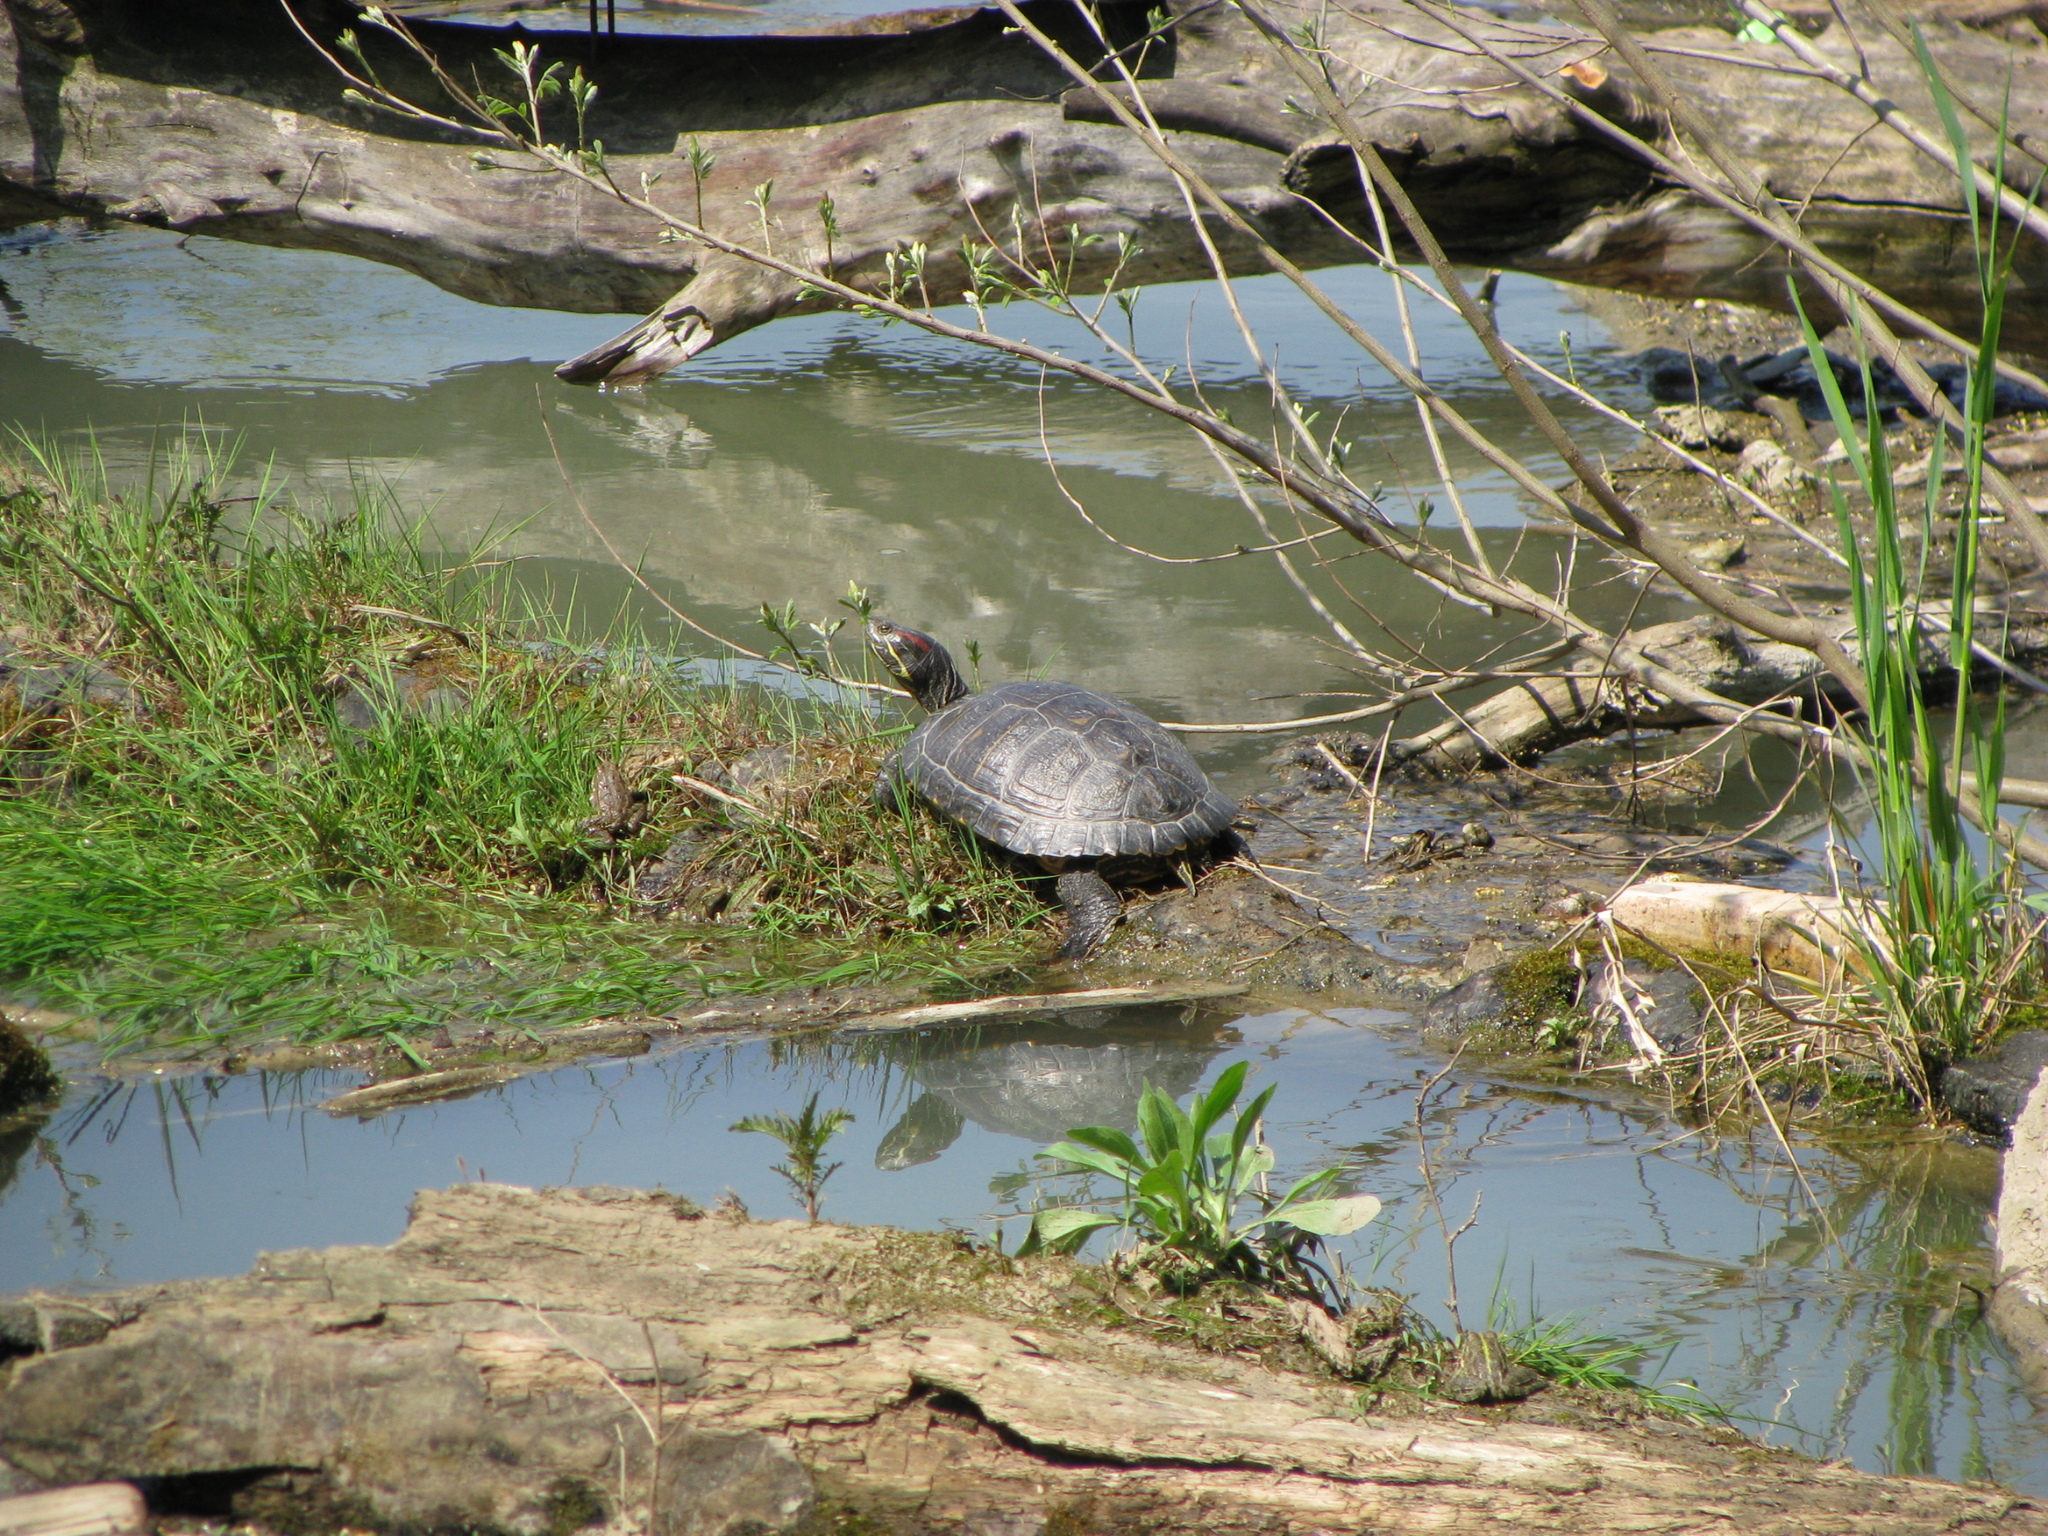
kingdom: Animalia
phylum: Chordata
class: Testudines
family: Emydidae
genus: Trachemys
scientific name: Trachemys scripta
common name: Slider
